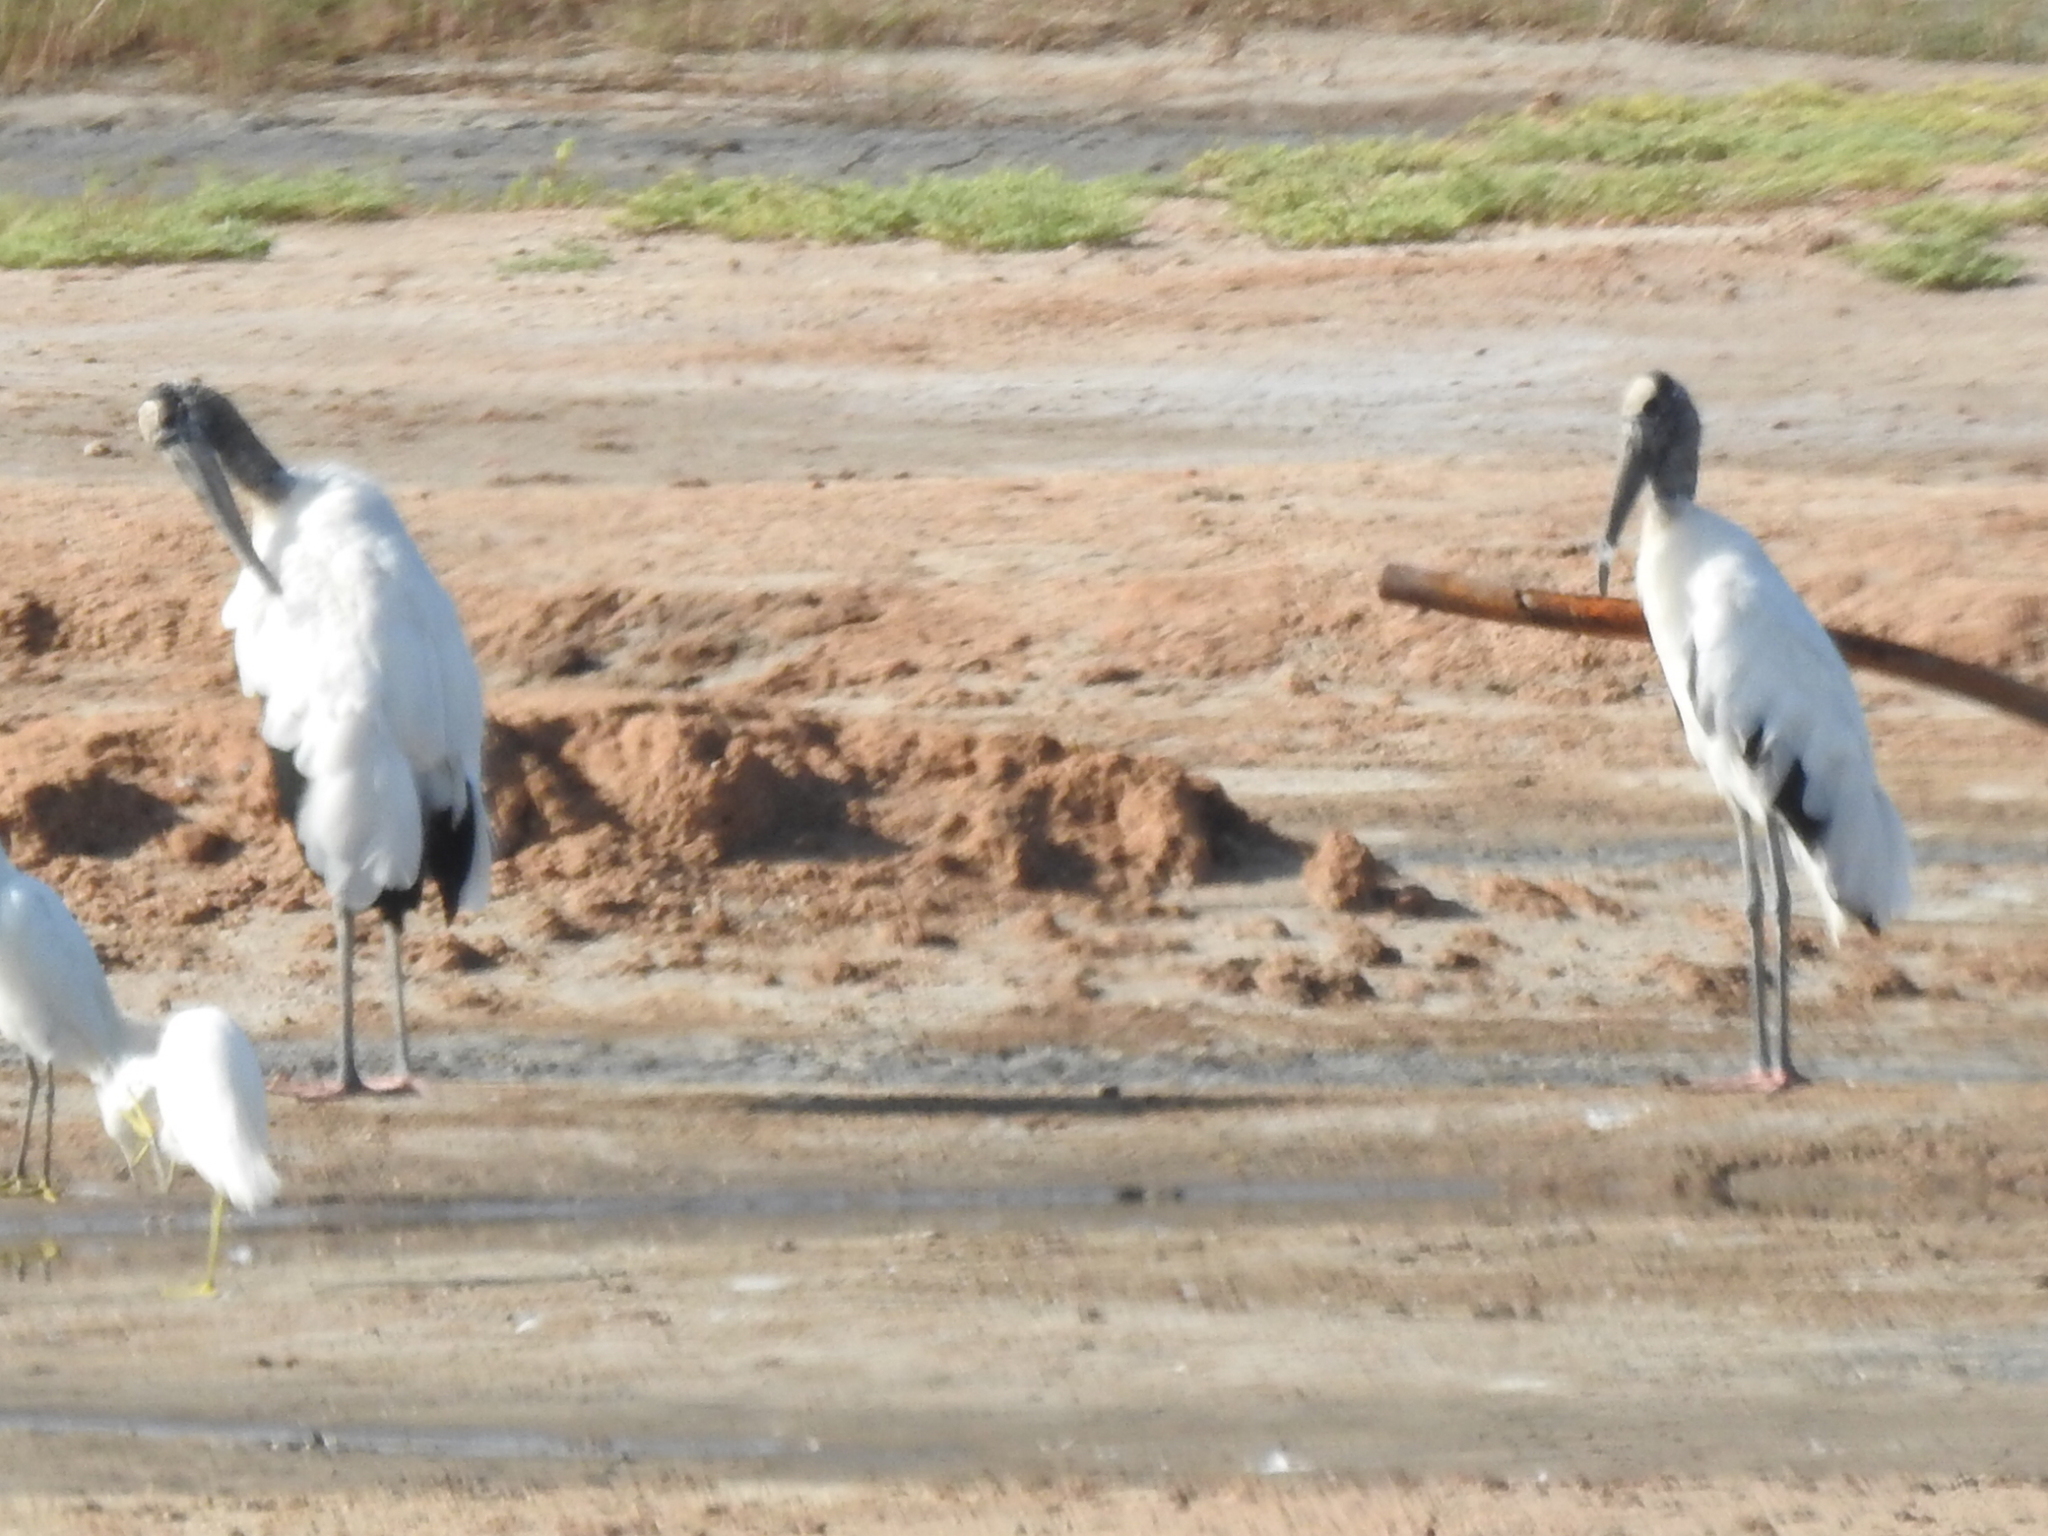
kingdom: Animalia
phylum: Chordata
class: Aves
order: Ciconiiformes
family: Ciconiidae
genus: Mycteria
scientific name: Mycteria americana
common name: Wood stork
